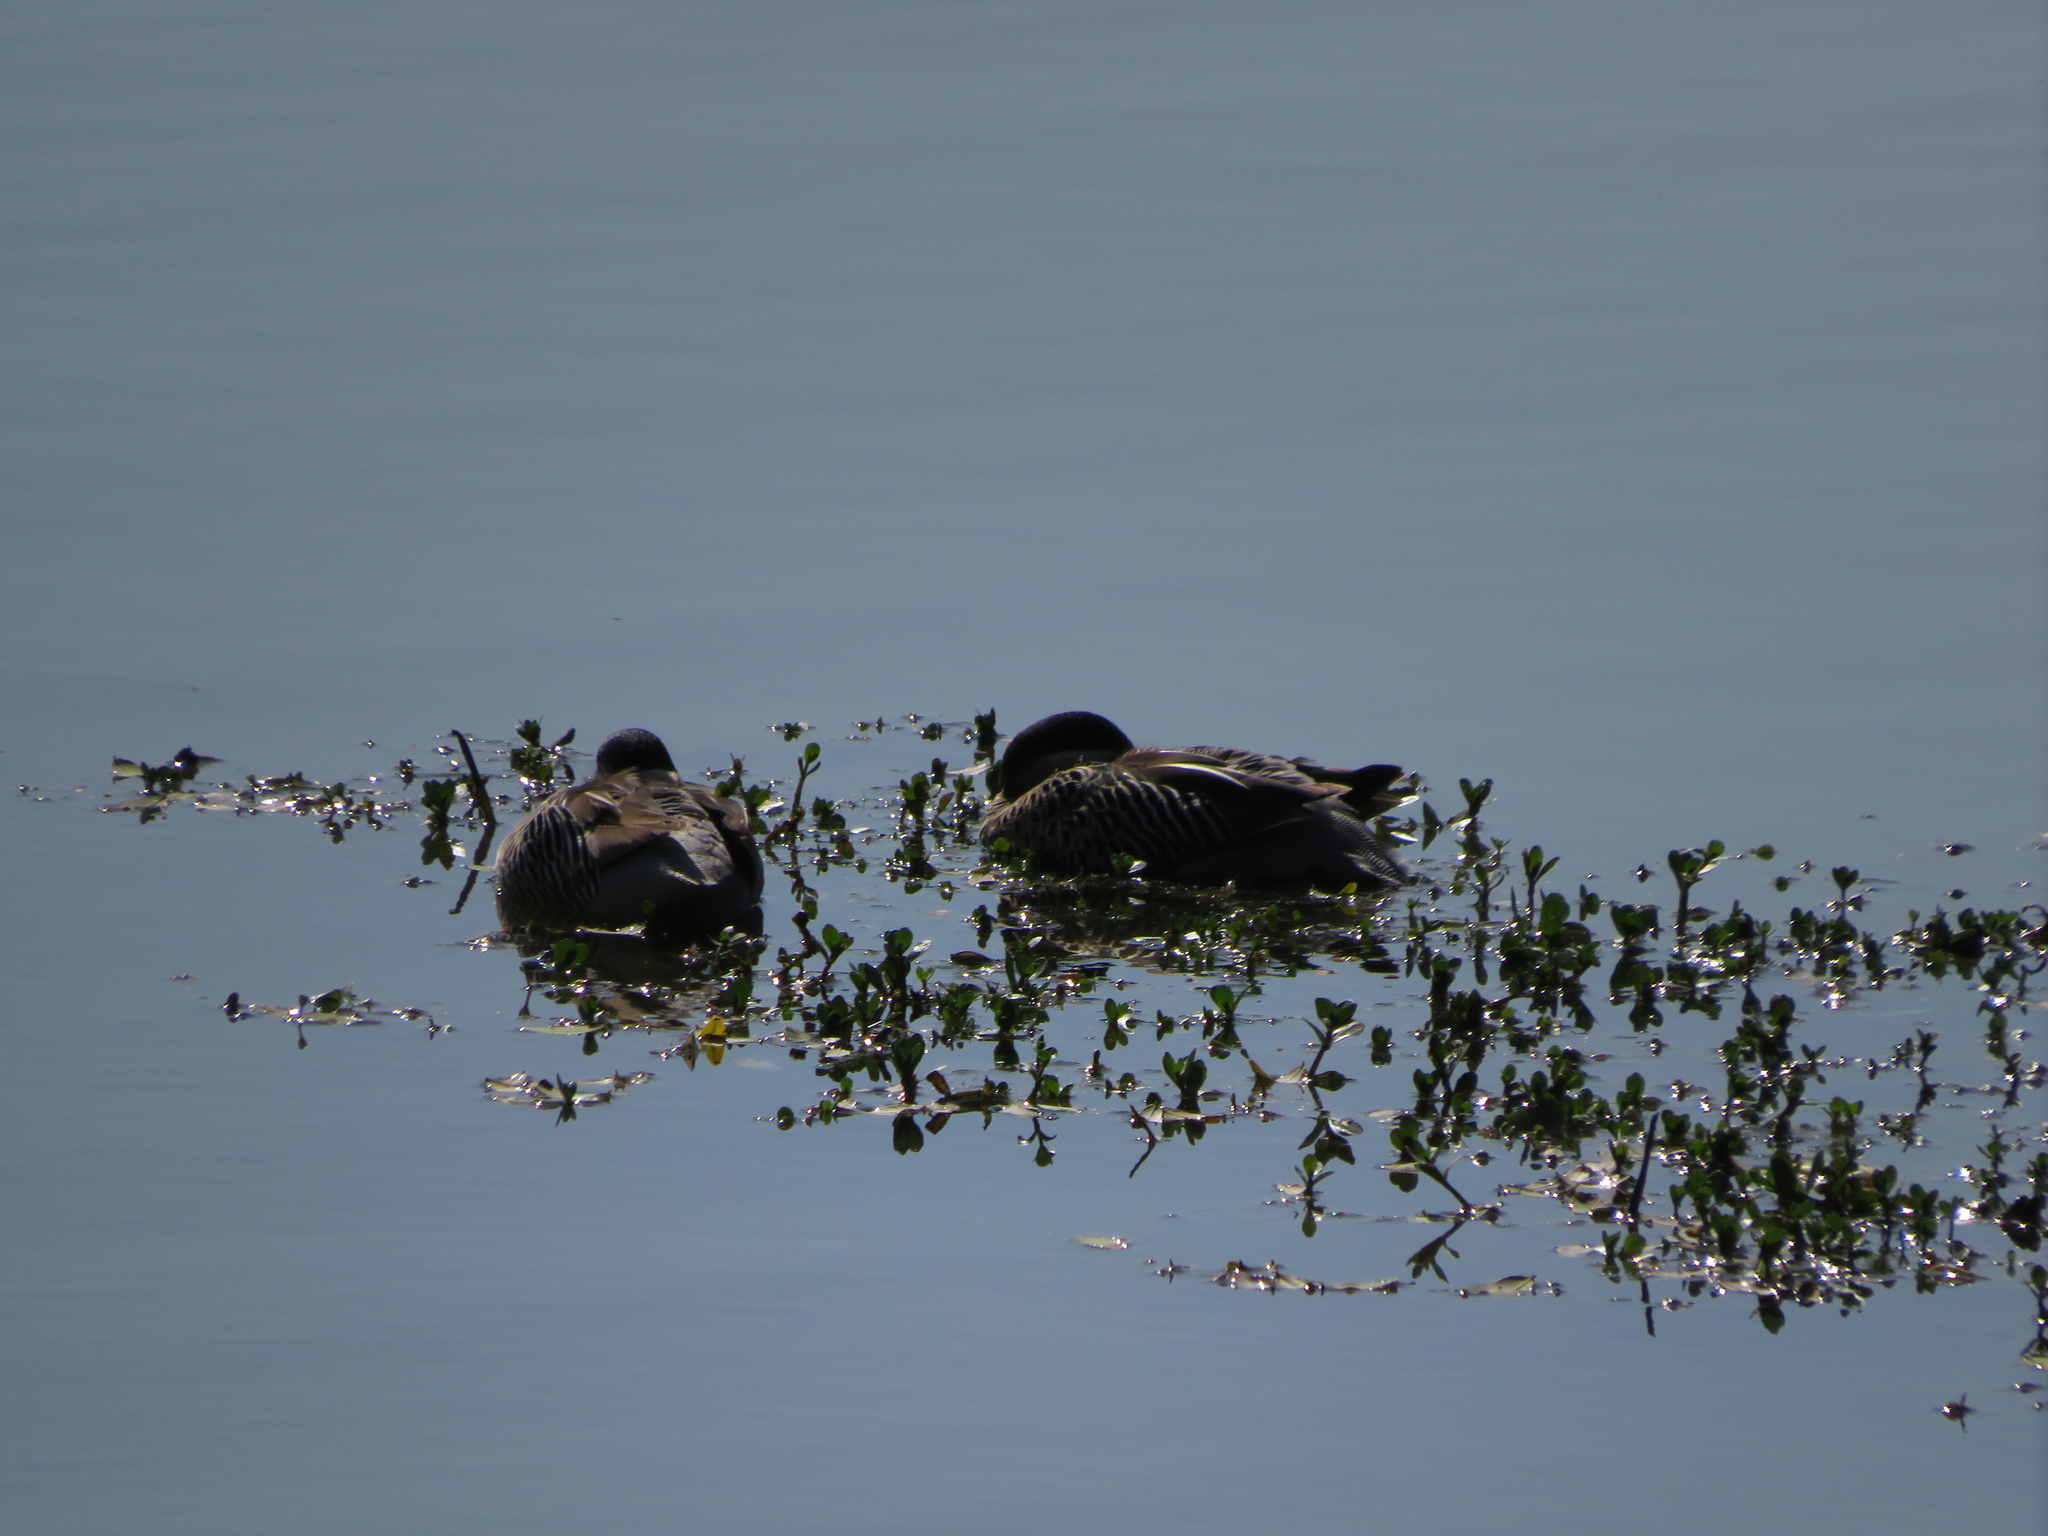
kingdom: Animalia
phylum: Chordata
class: Aves
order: Anseriformes
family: Anatidae
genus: Spatula
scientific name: Spatula versicolor
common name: Silver teal
